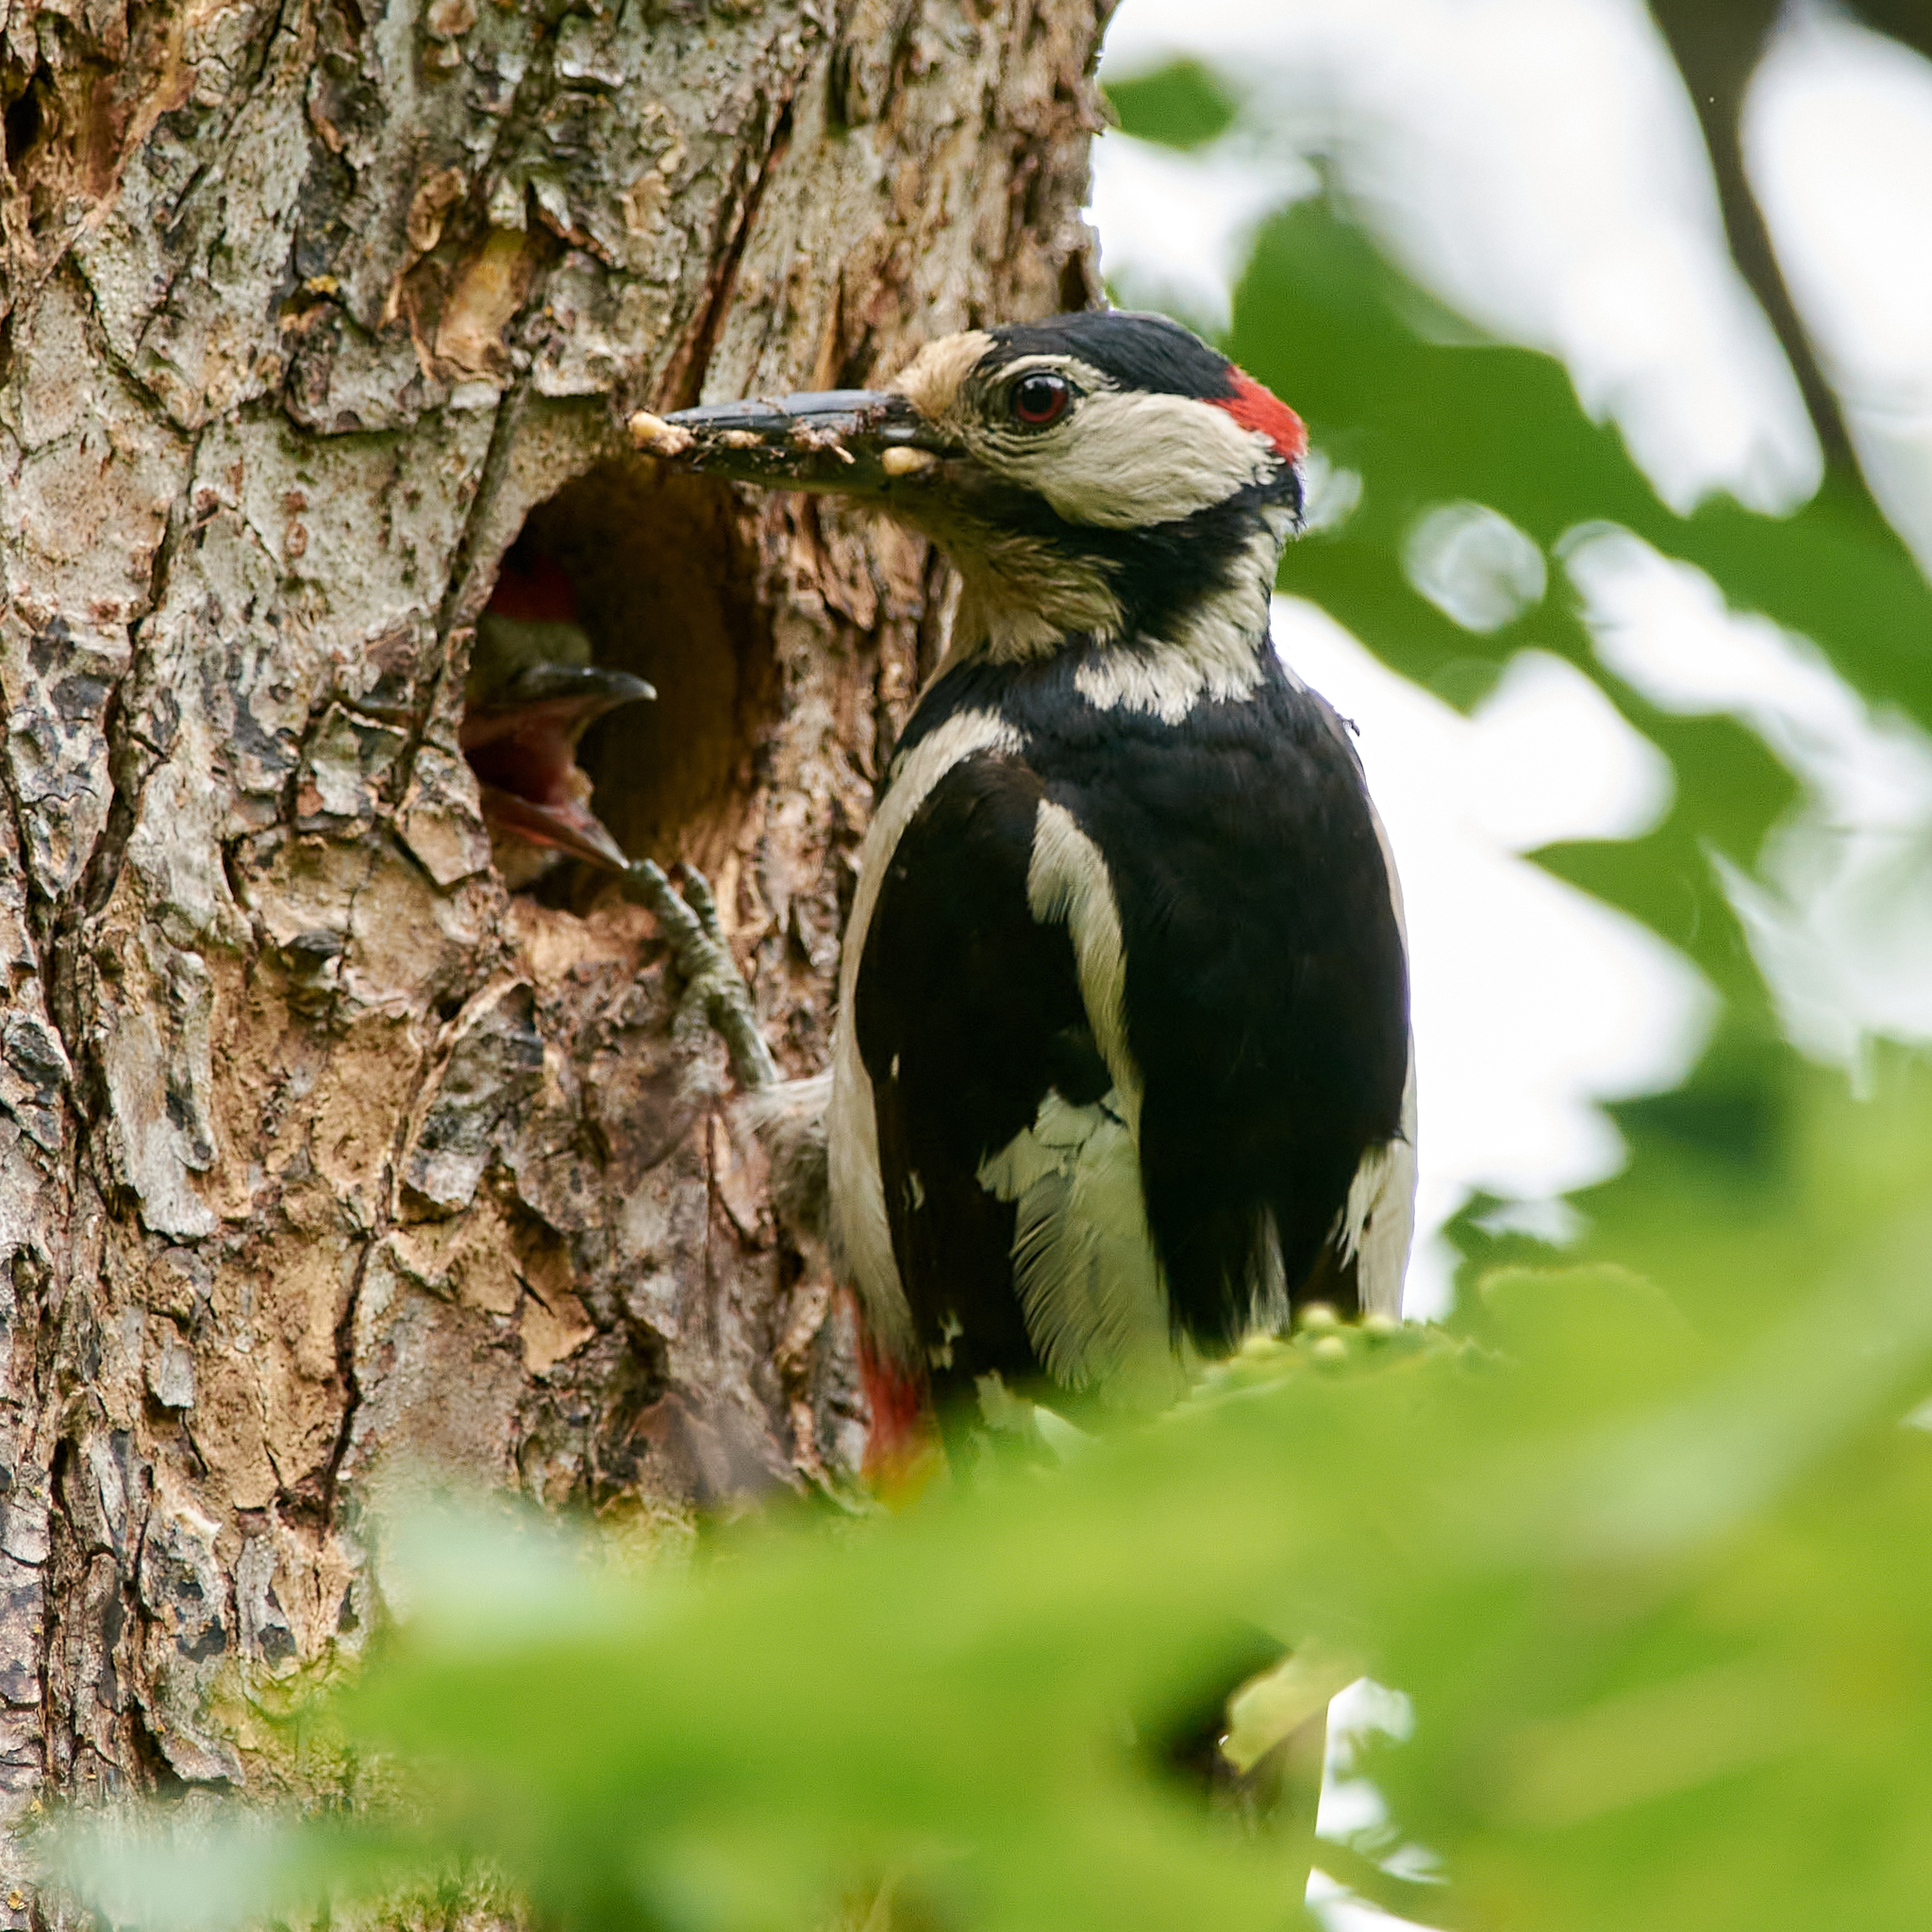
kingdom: Animalia
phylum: Chordata
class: Aves
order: Piciformes
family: Picidae
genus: Dendrocopos
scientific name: Dendrocopos major
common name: Great spotted woodpecker
